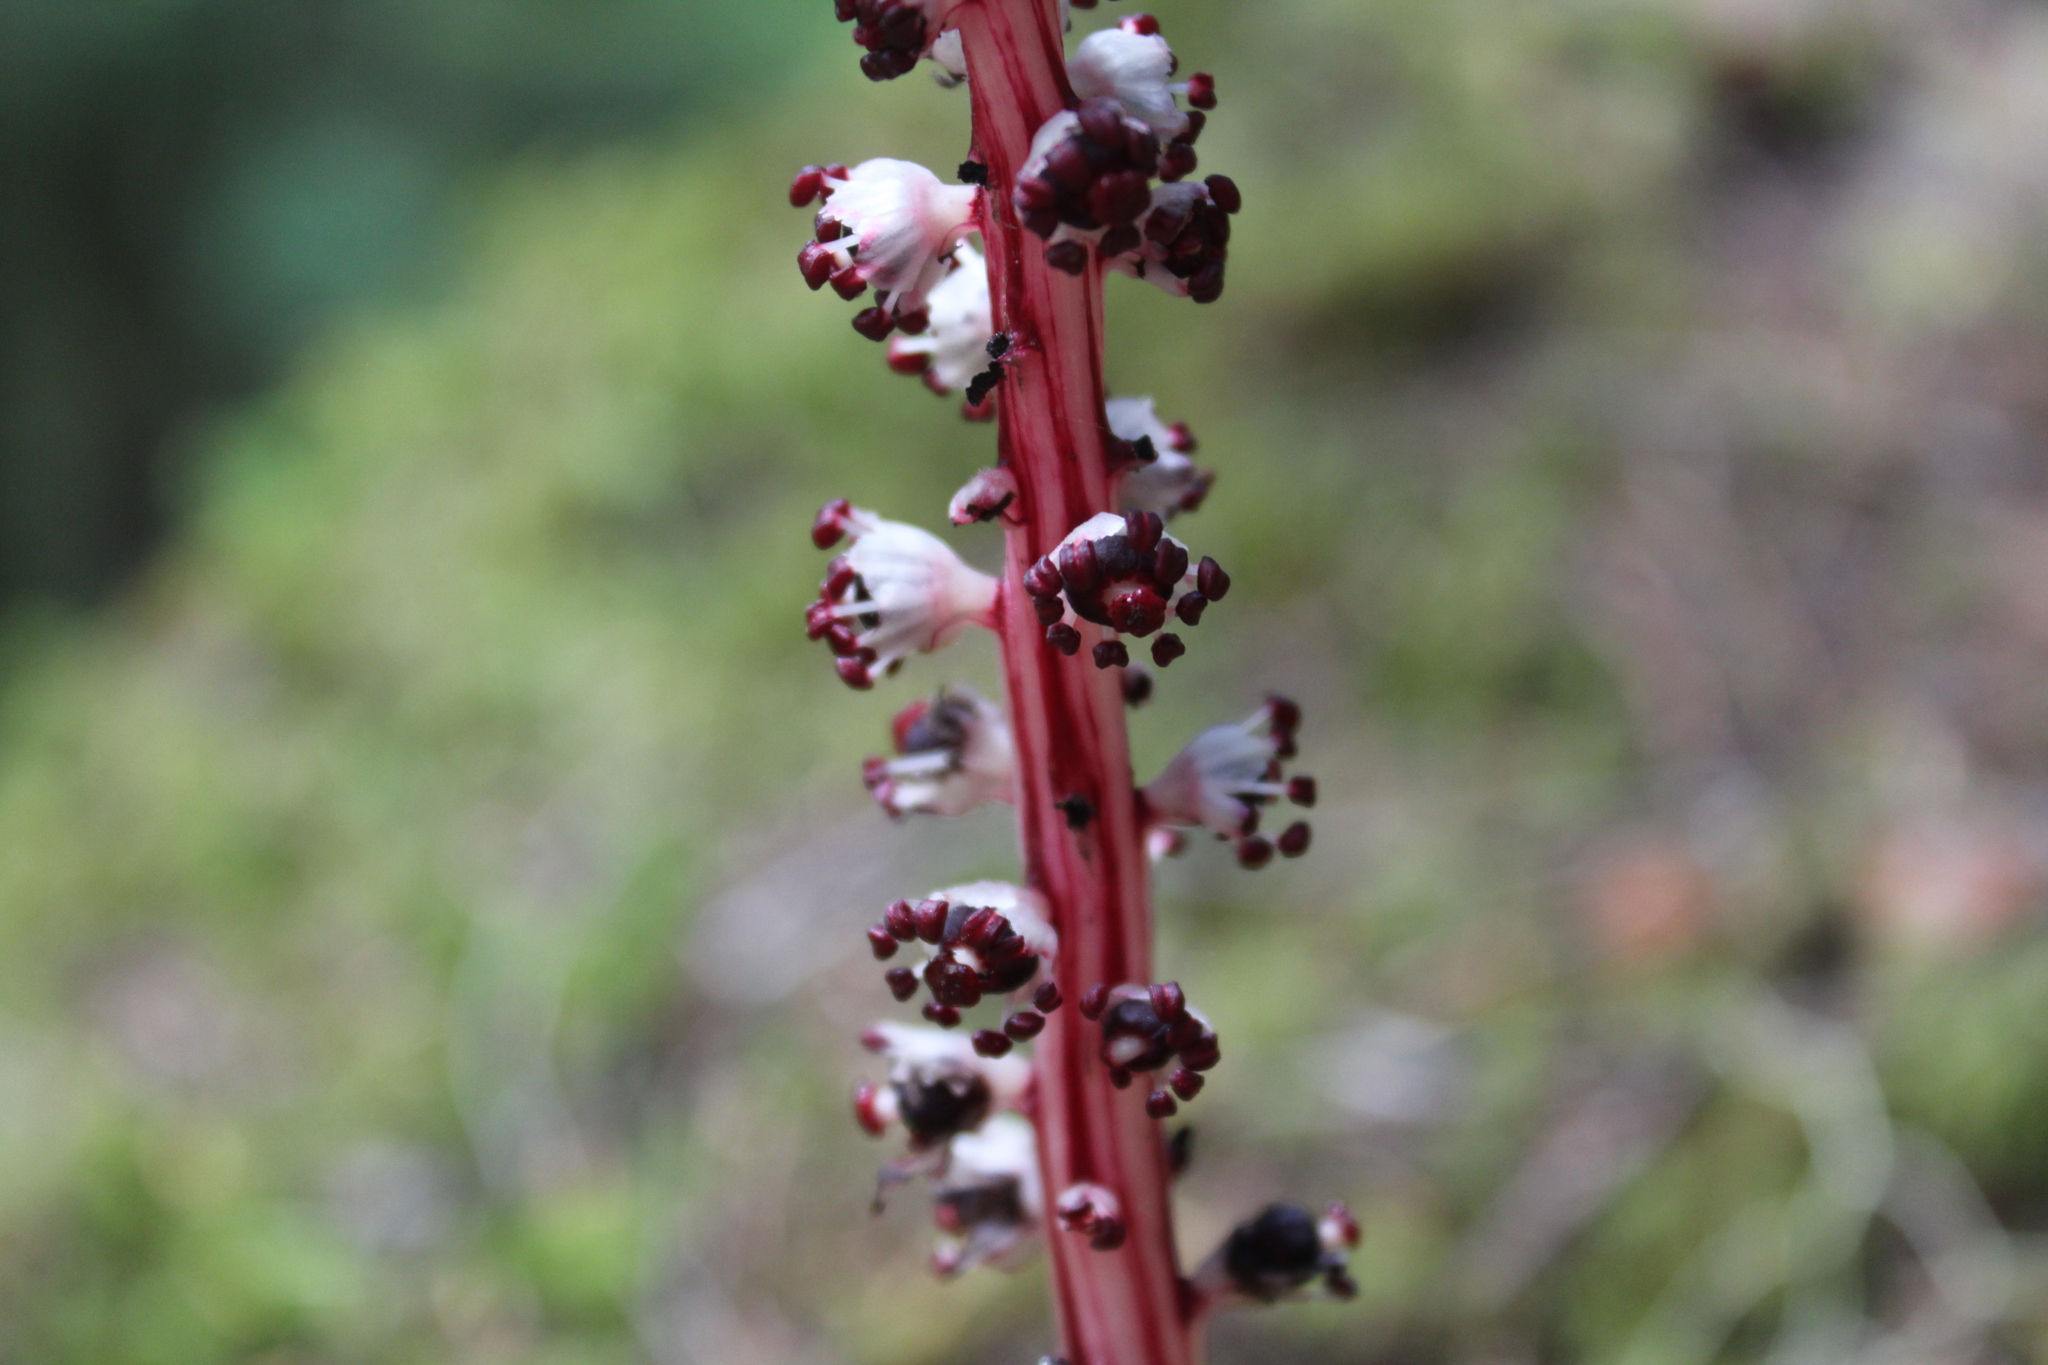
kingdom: Plantae
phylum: Tracheophyta
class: Magnoliopsida
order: Ericales
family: Ericaceae
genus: Allotropa
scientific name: Allotropa virgata
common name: Candy-striped allotropa
